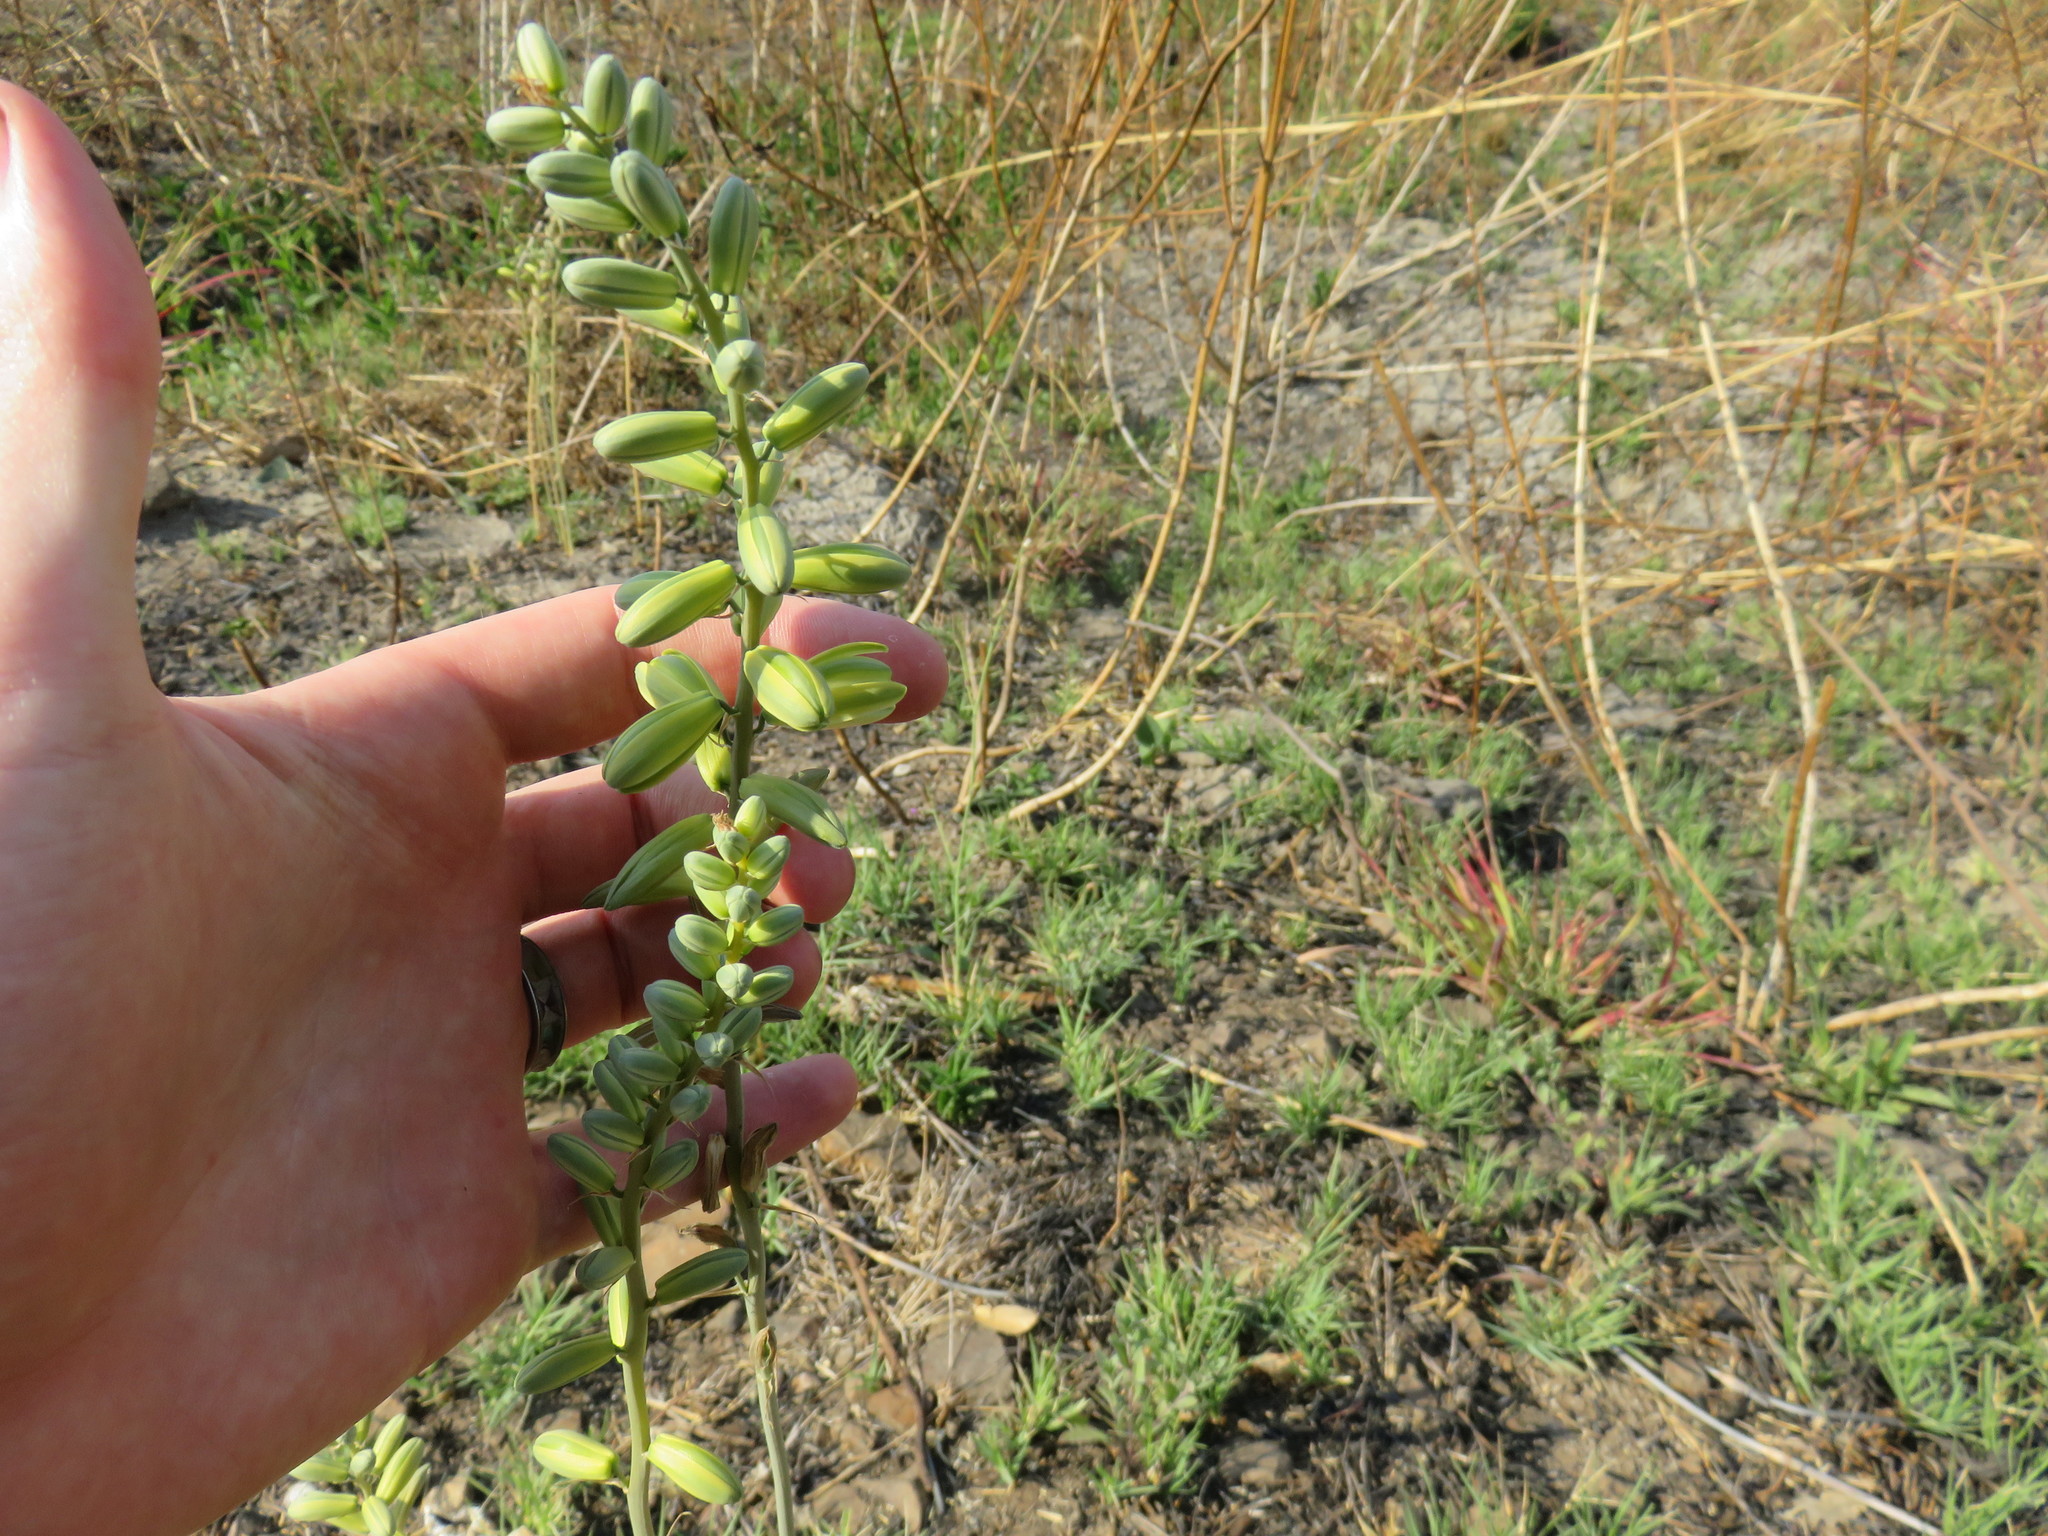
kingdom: Plantae
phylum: Tracheophyta
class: Liliopsida
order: Asparagales
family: Asparagaceae
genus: Albuca
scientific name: Albuca abyssinica
